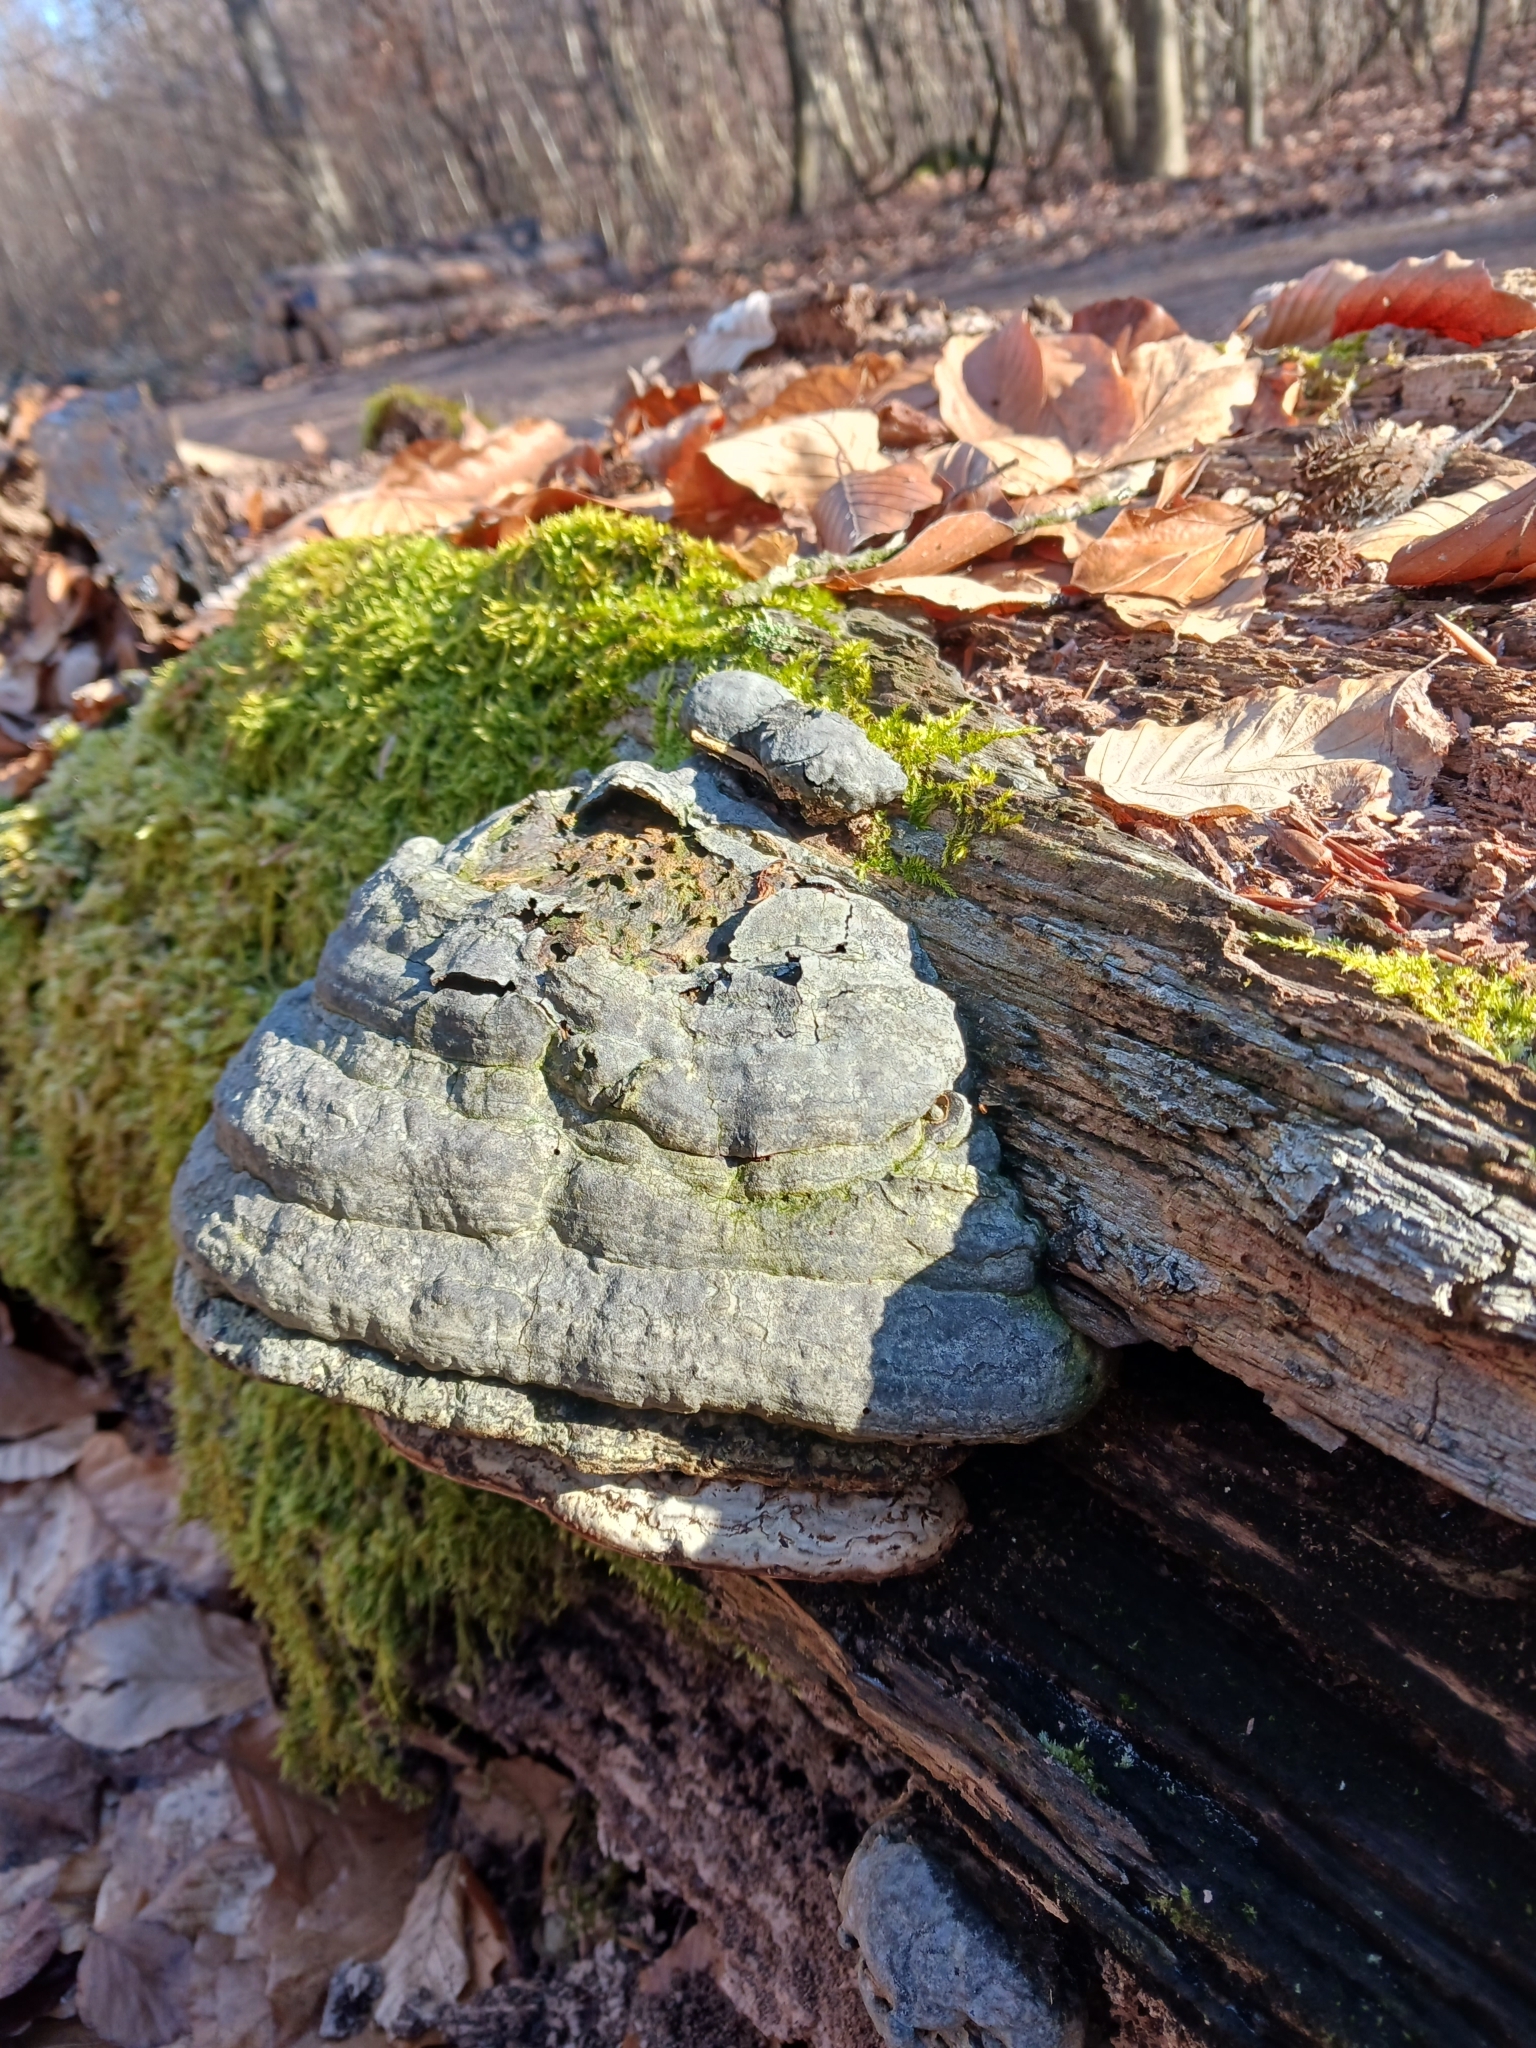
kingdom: Fungi
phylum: Basidiomycota
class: Agaricomycetes
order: Polyporales
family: Polyporaceae
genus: Fomes
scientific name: Fomes fomentarius
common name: Hoof fungus
